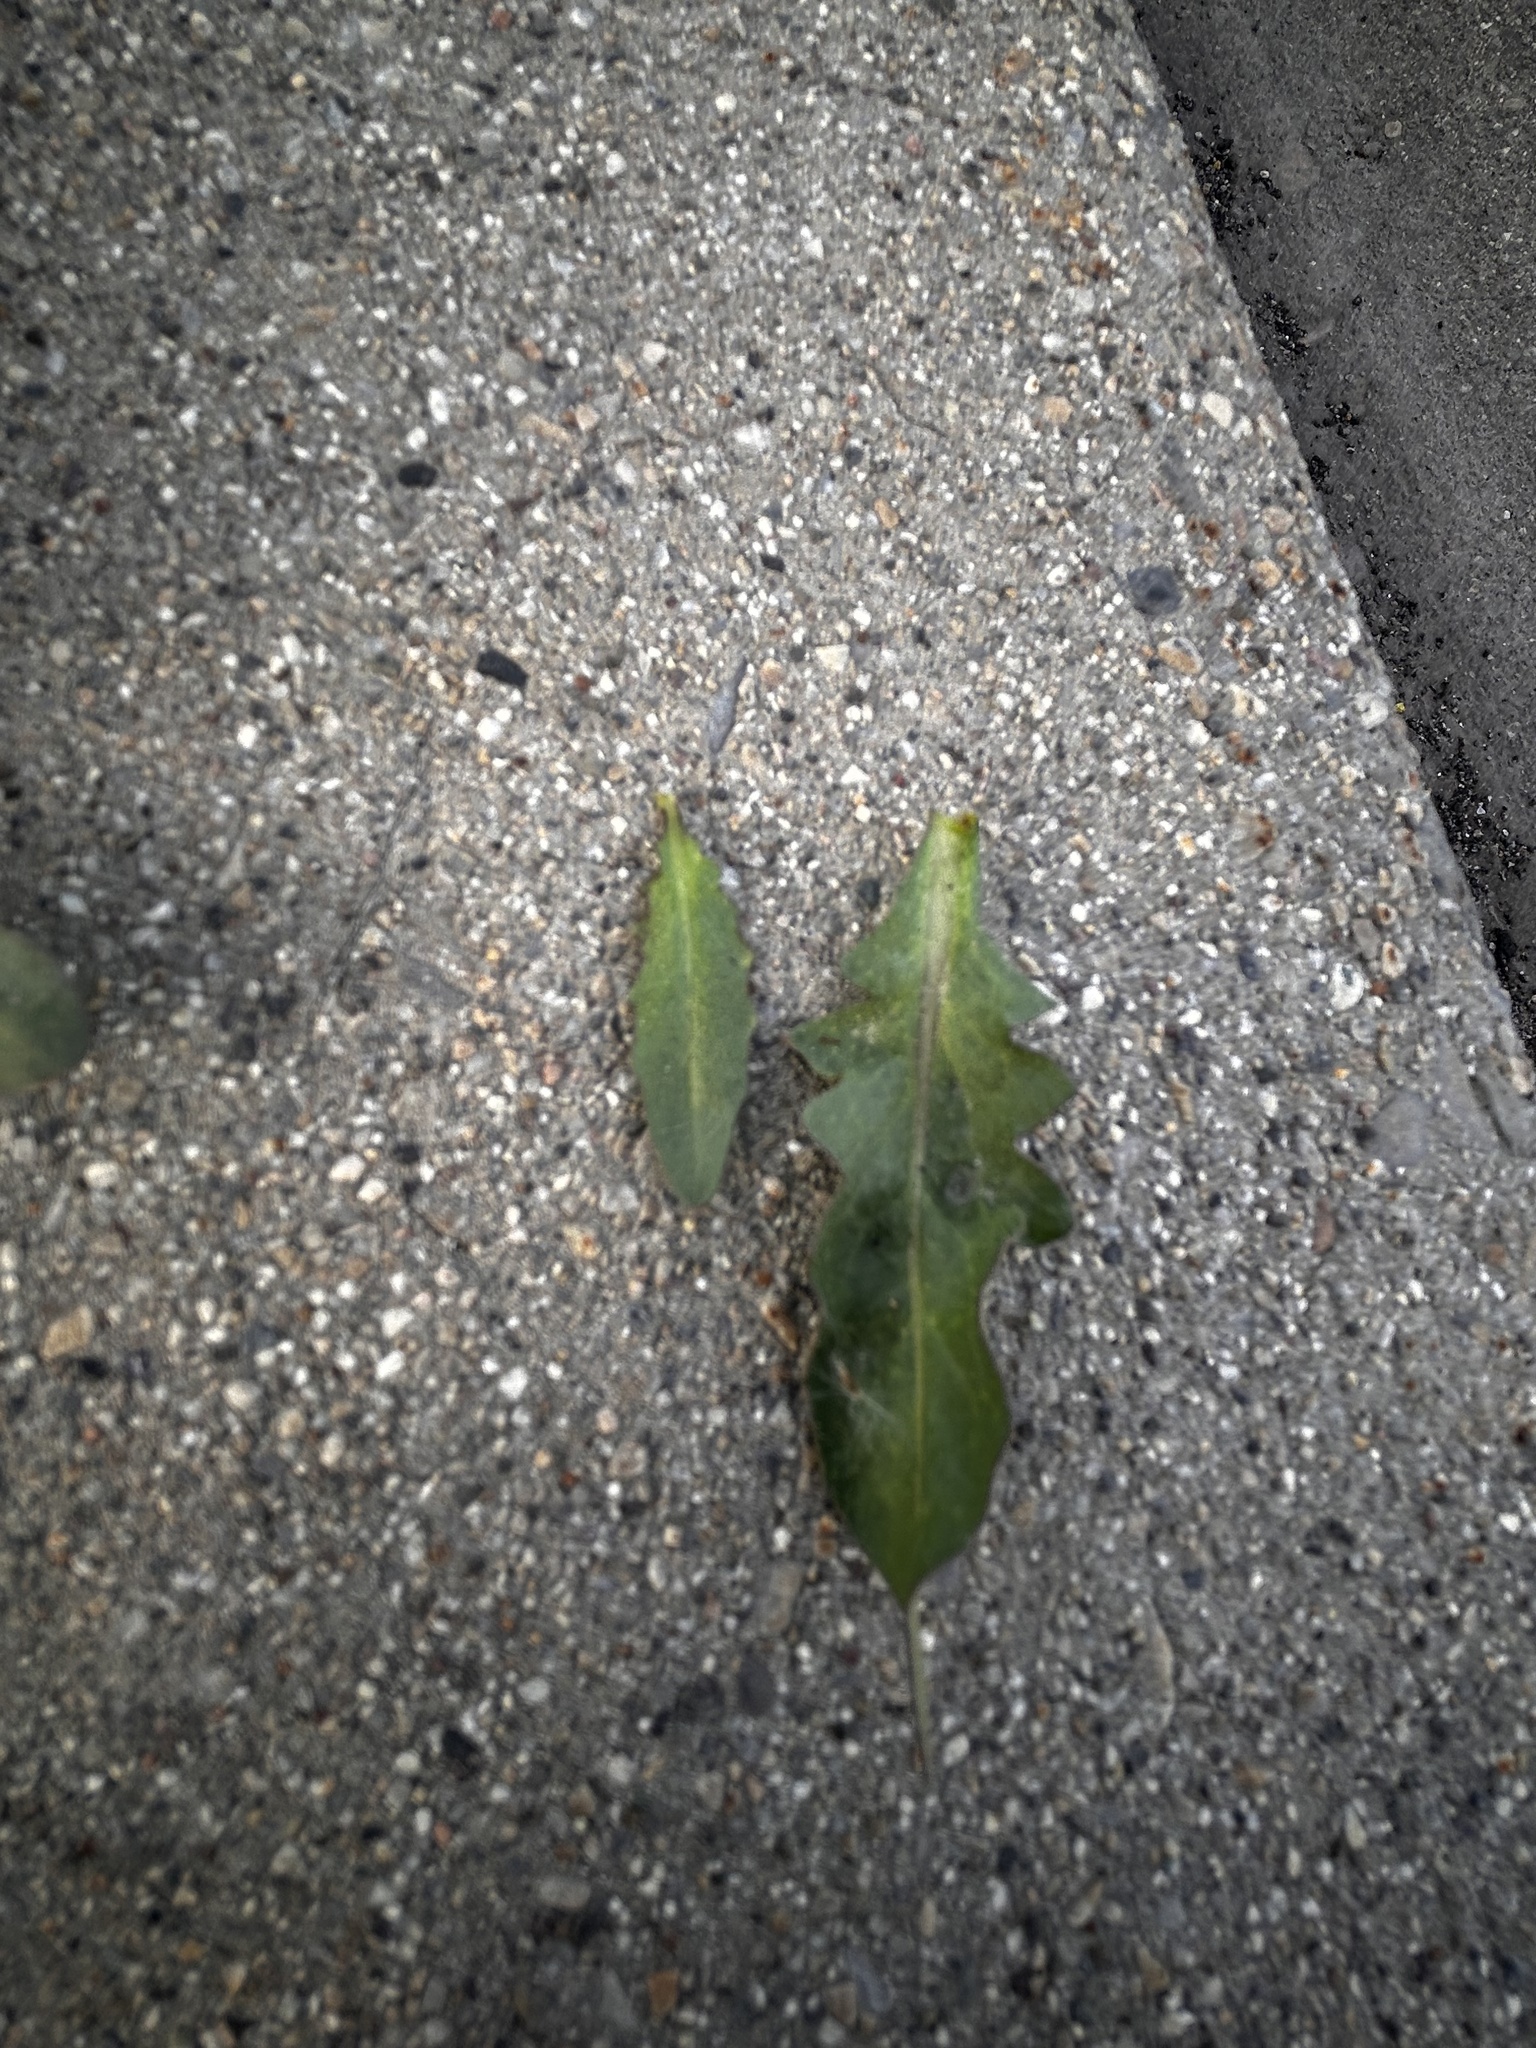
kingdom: Plantae
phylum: Tracheophyta
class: Magnoliopsida
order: Brassicales
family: Brassicaceae
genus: Chorispora
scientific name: Chorispora tenella
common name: Crossflower
